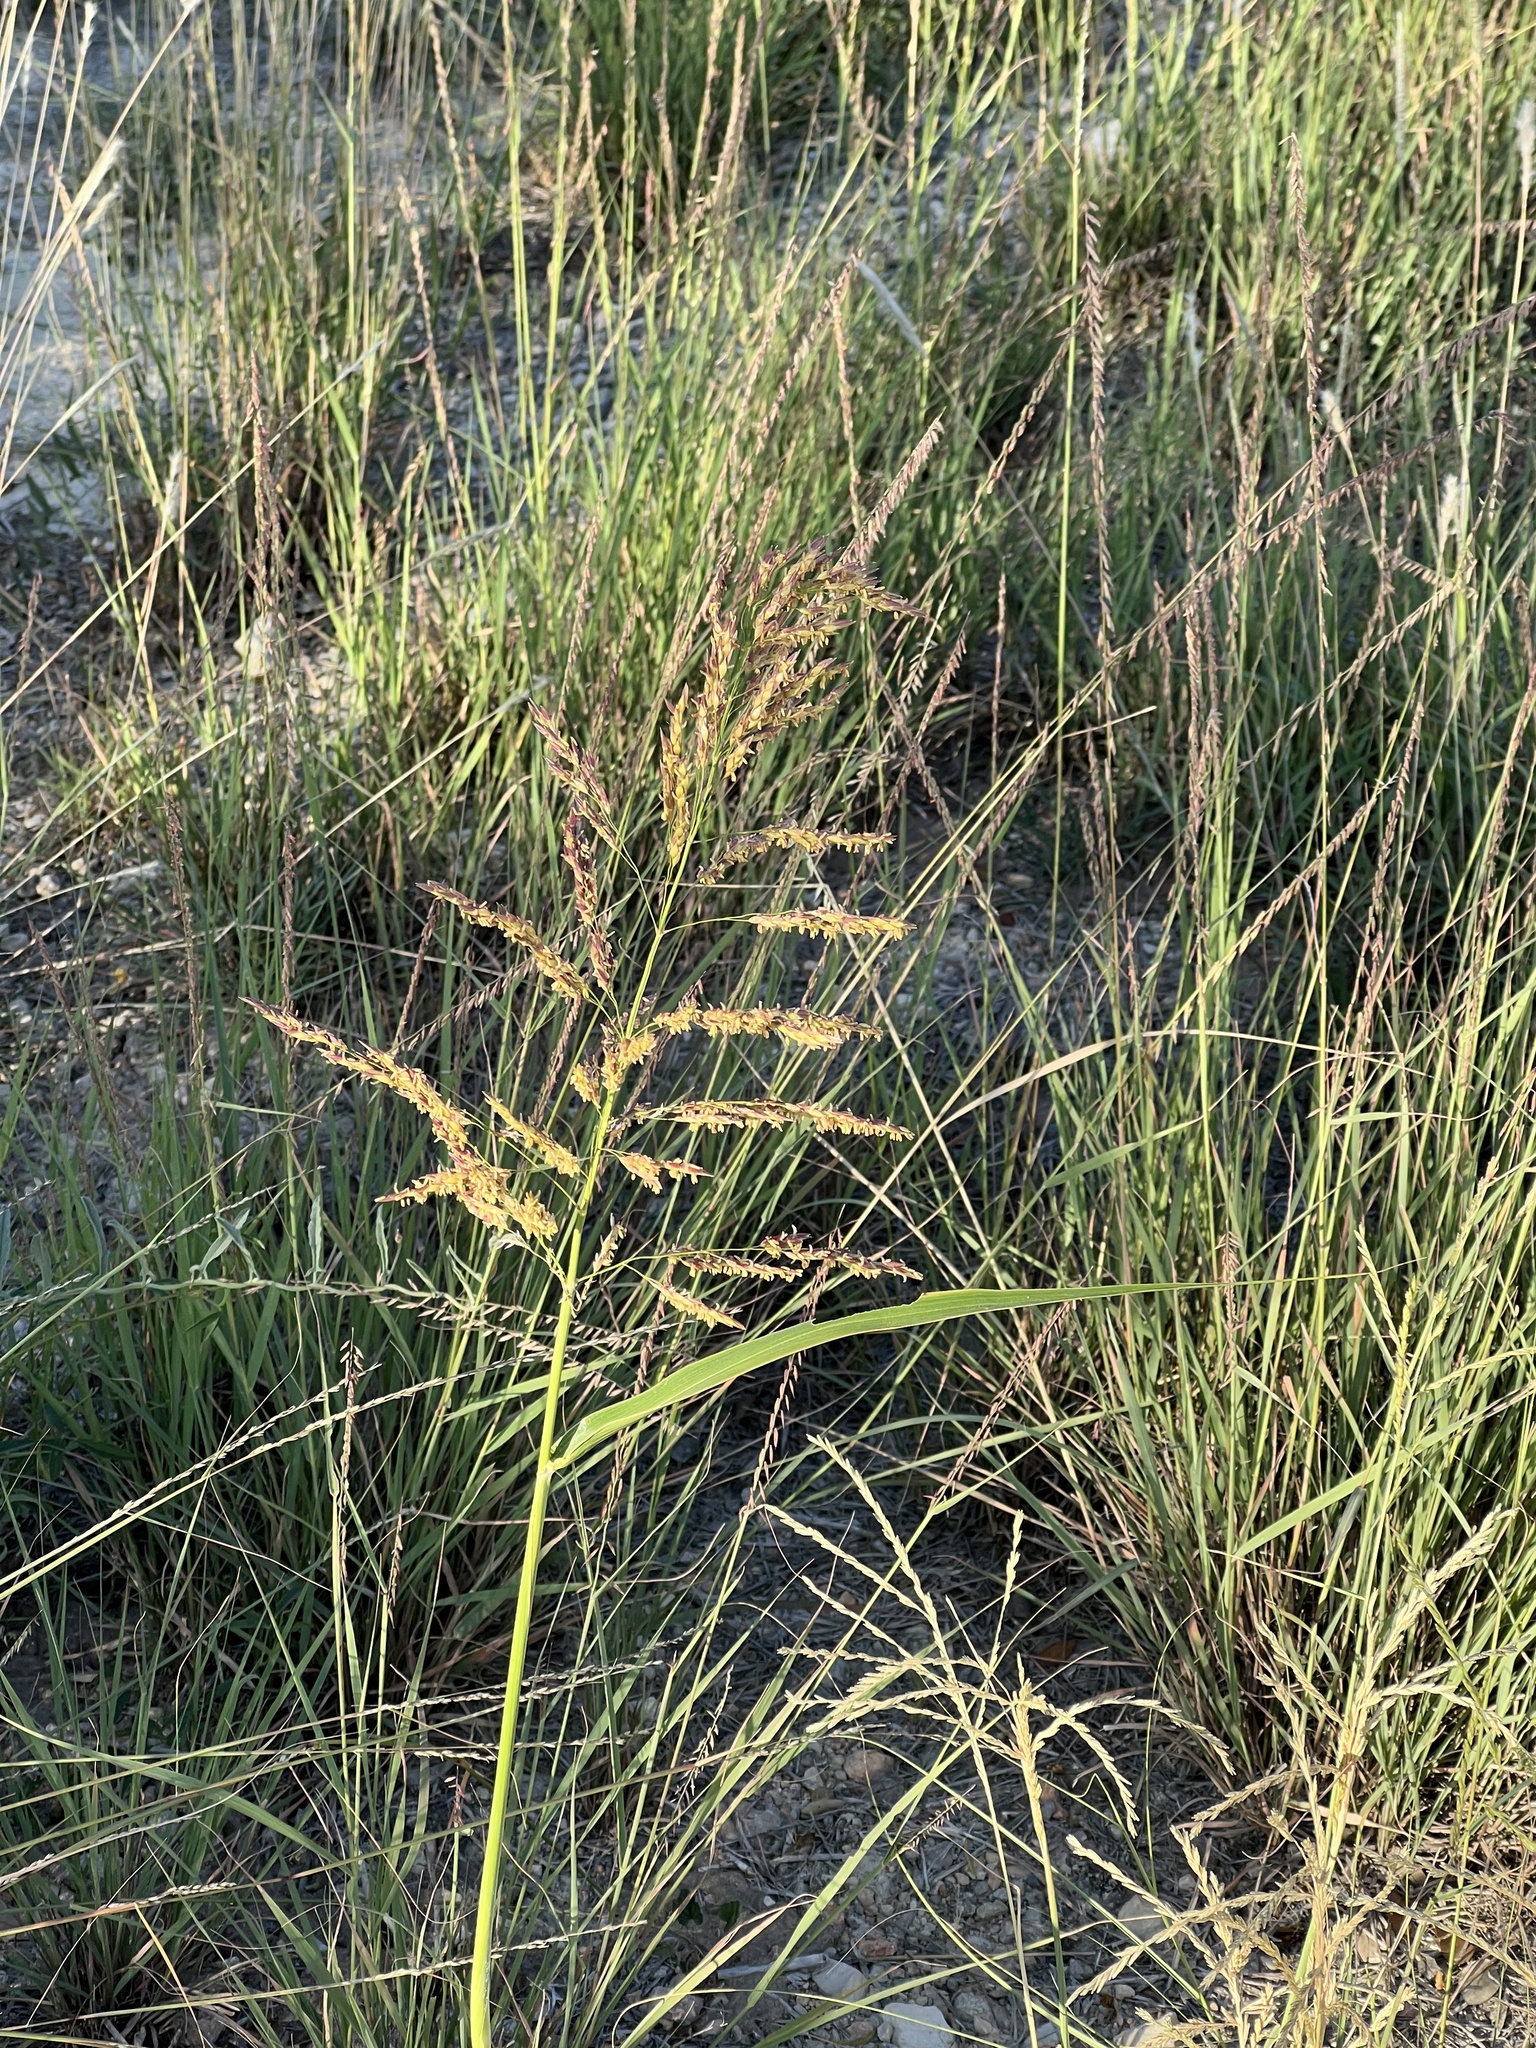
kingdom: Plantae
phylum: Tracheophyta
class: Liliopsida
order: Poales
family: Poaceae
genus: Sorghum
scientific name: Sorghum halepense
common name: Johnson-grass
